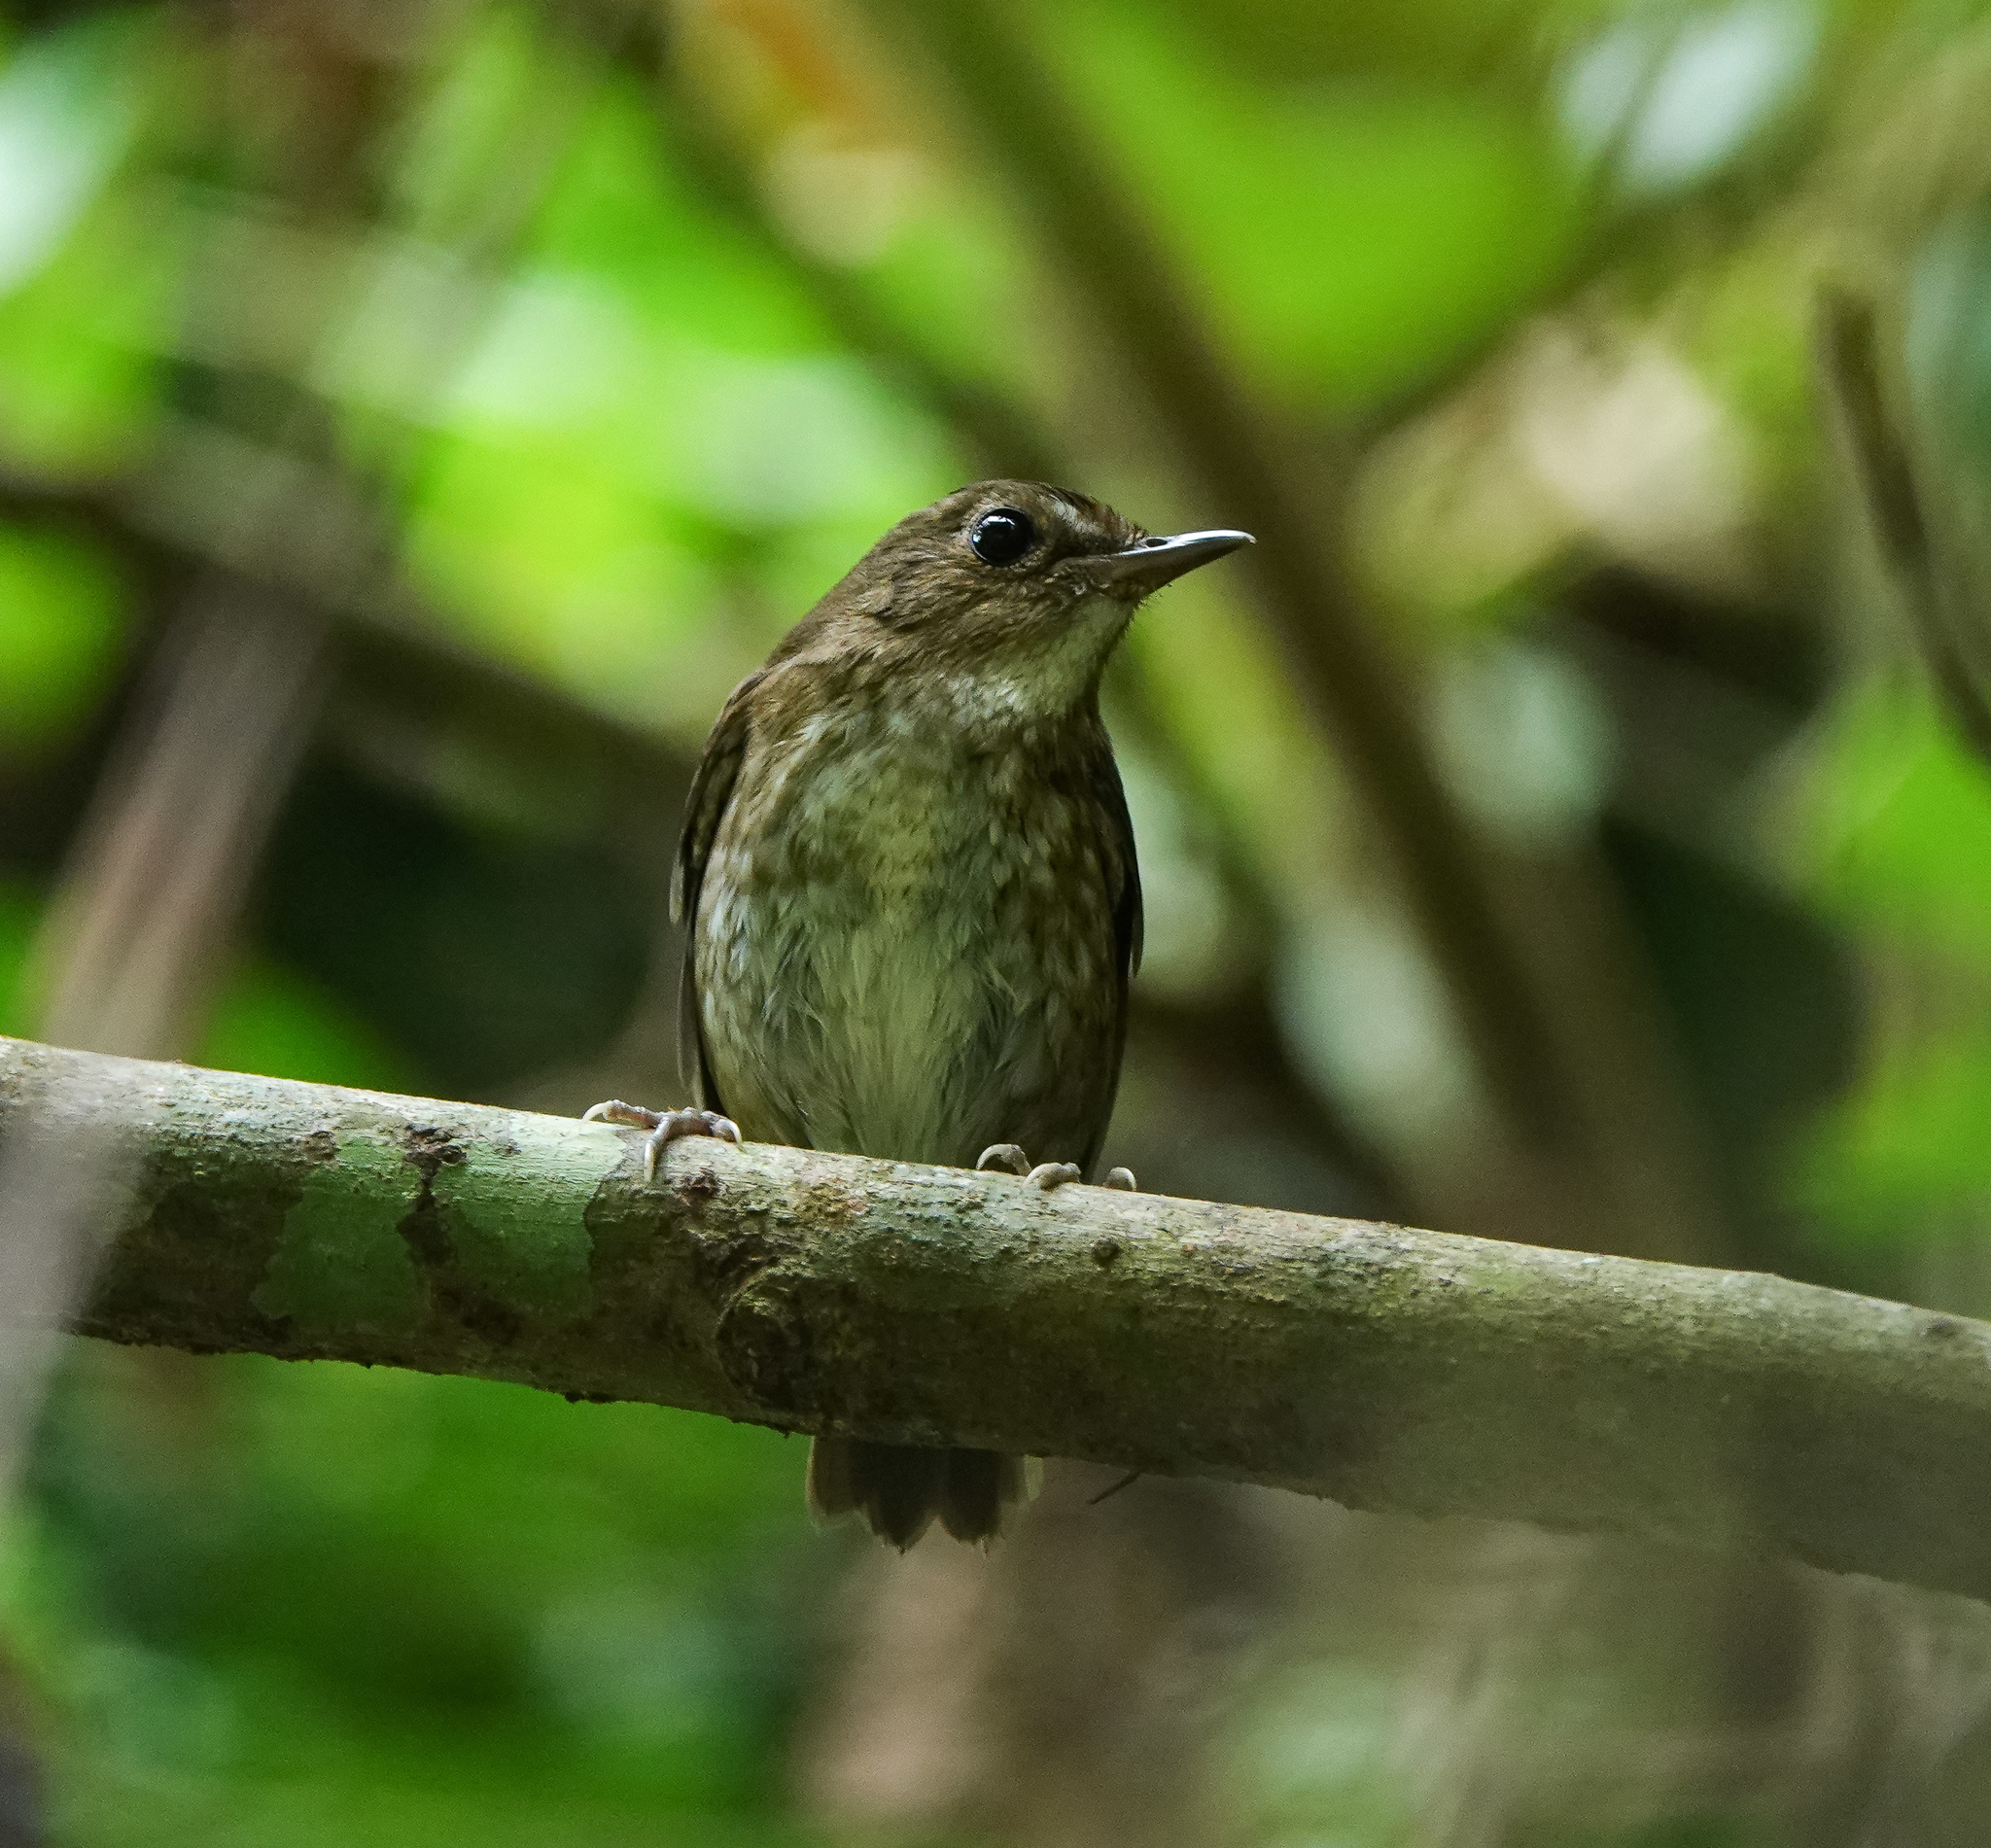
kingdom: Animalia
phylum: Chordata
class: Aves
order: Passeriformes
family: Muscicapidae
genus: Brachypteryx
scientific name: Brachypteryx leucophris
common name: Lesser shortwing
